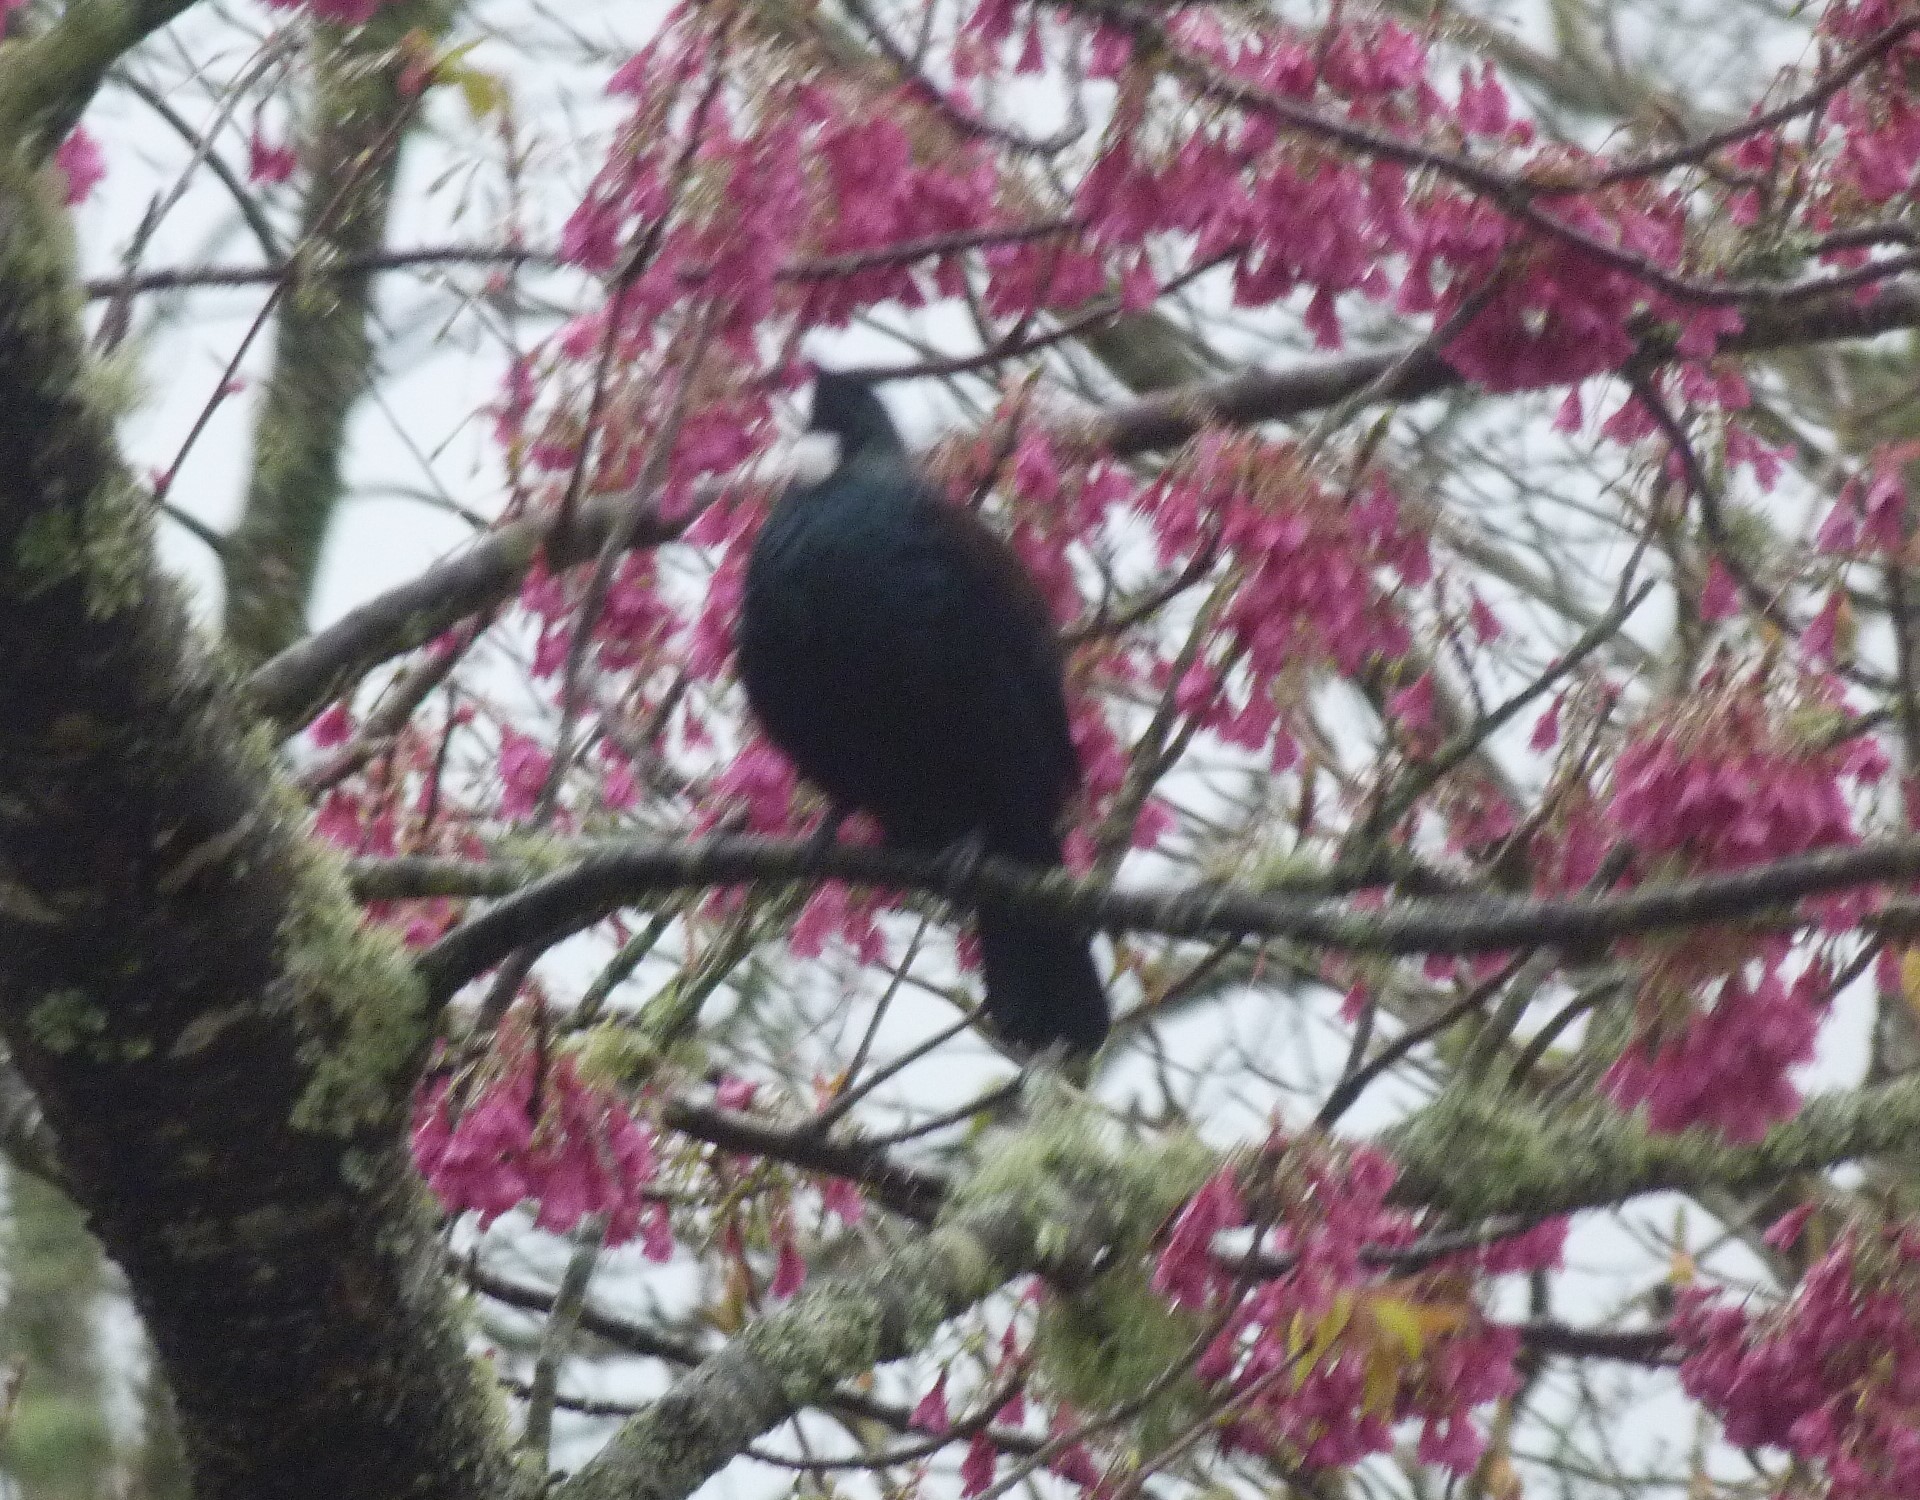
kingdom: Animalia
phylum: Chordata
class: Aves
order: Passeriformes
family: Meliphagidae
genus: Prosthemadera
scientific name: Prosthemadera novaeseelandiae
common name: Tui
